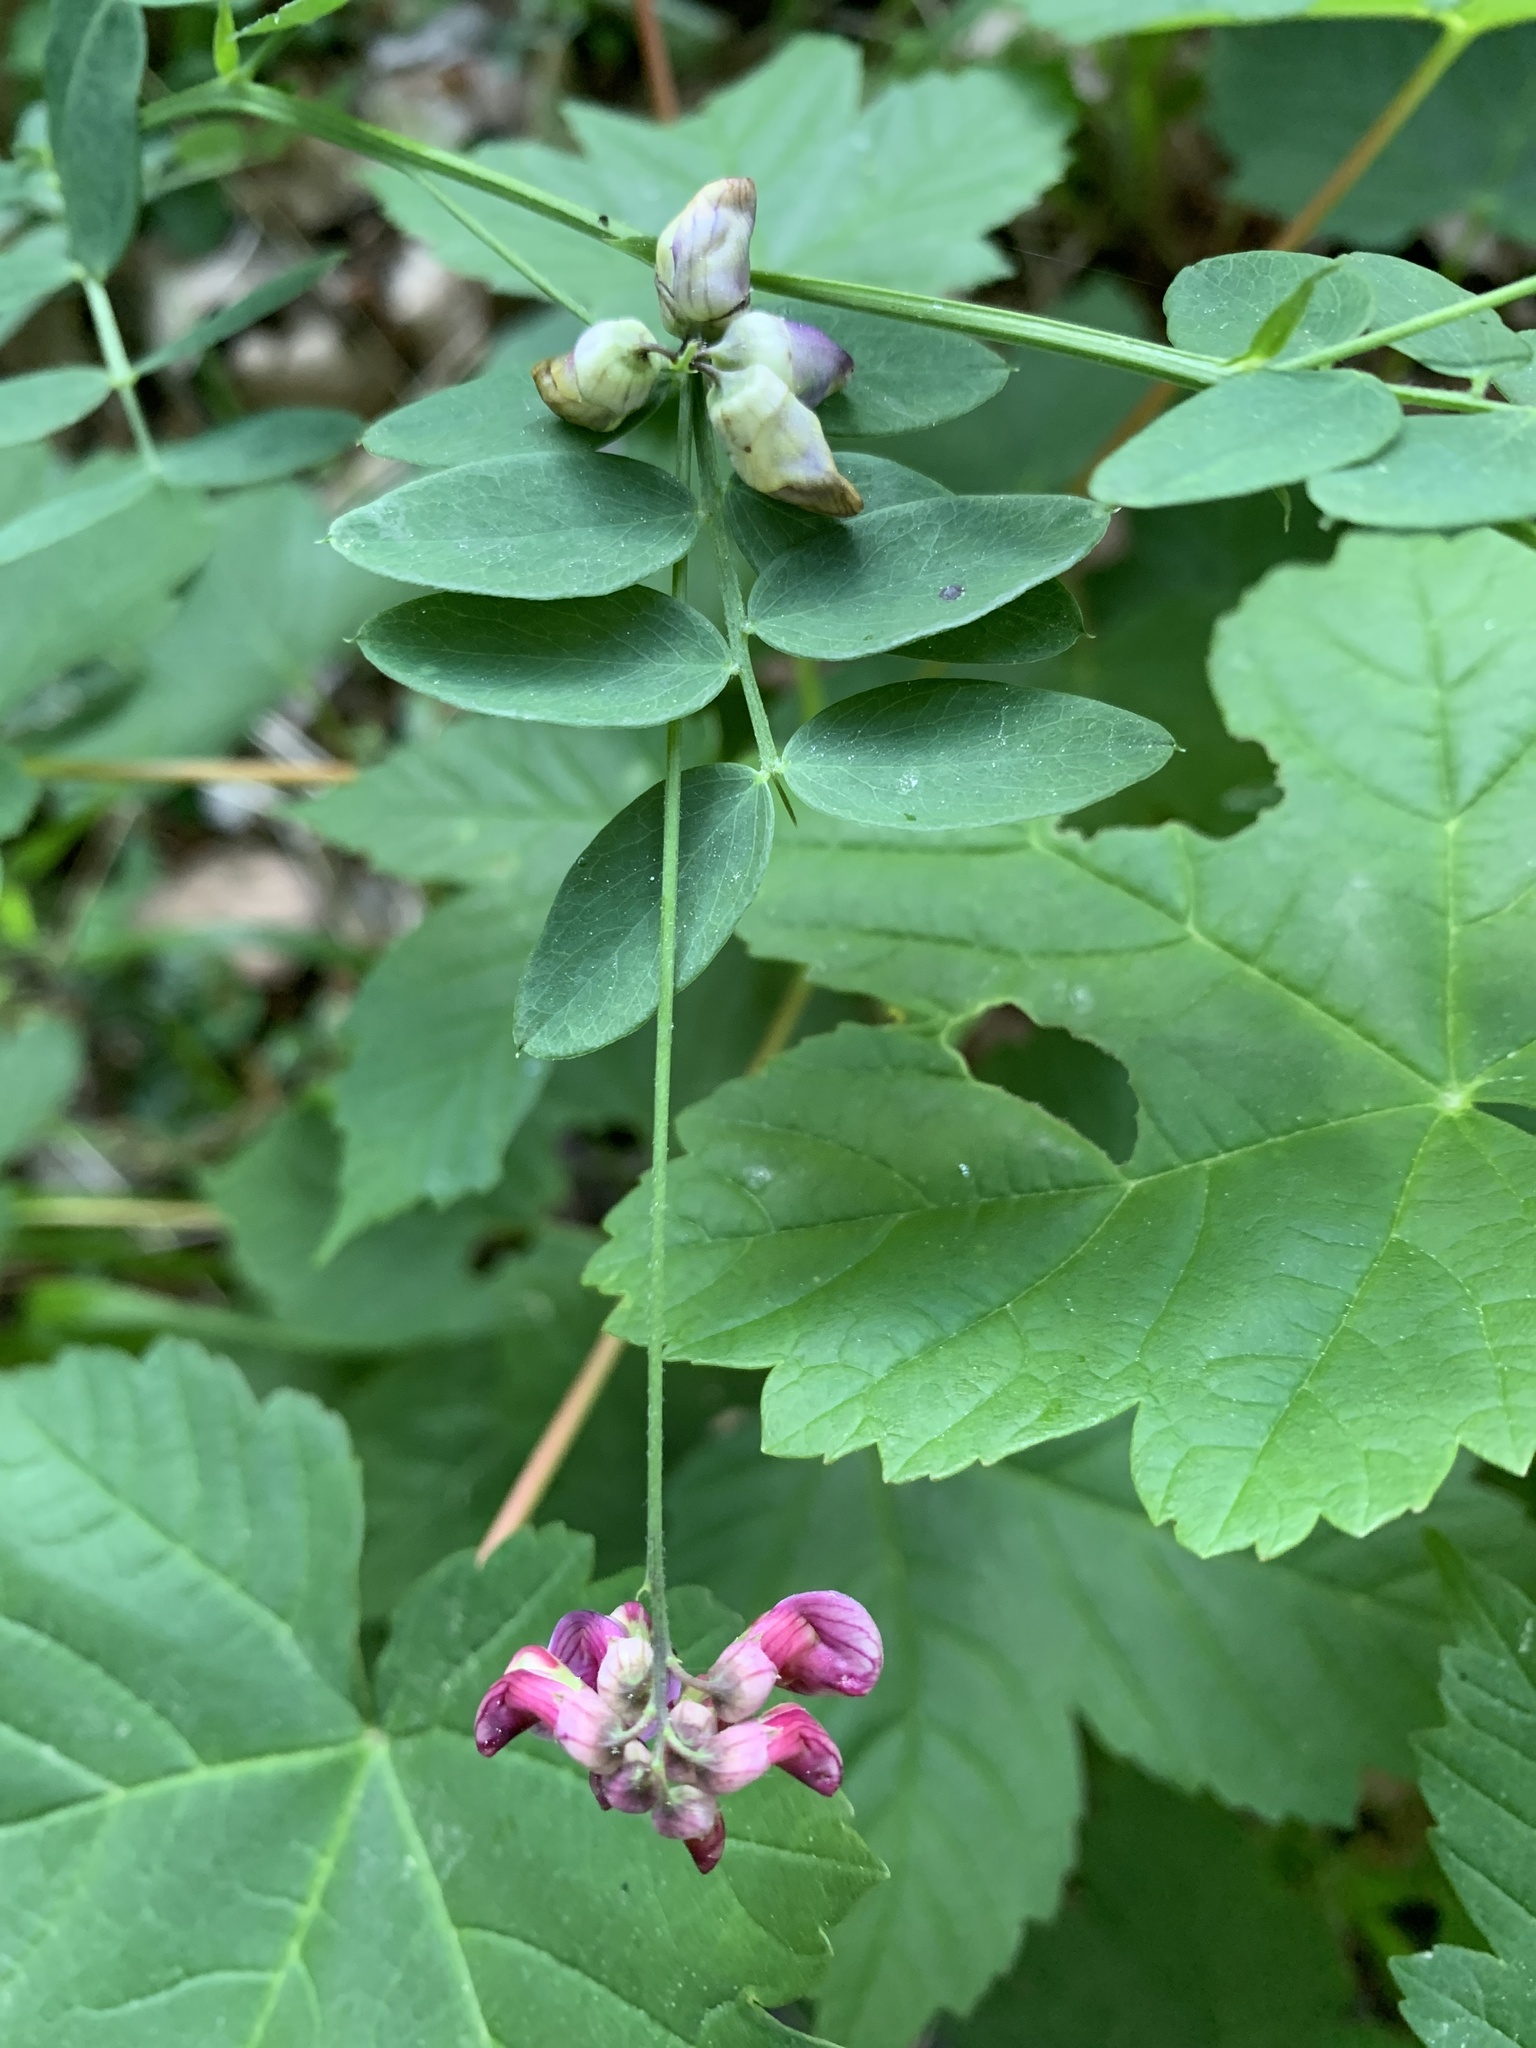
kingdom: Plantae
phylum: Tracheophyta
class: Magnoliopsida
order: Fabales
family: Fabaceae
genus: Lathyrus
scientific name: Lathyrus niger
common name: Black pea
